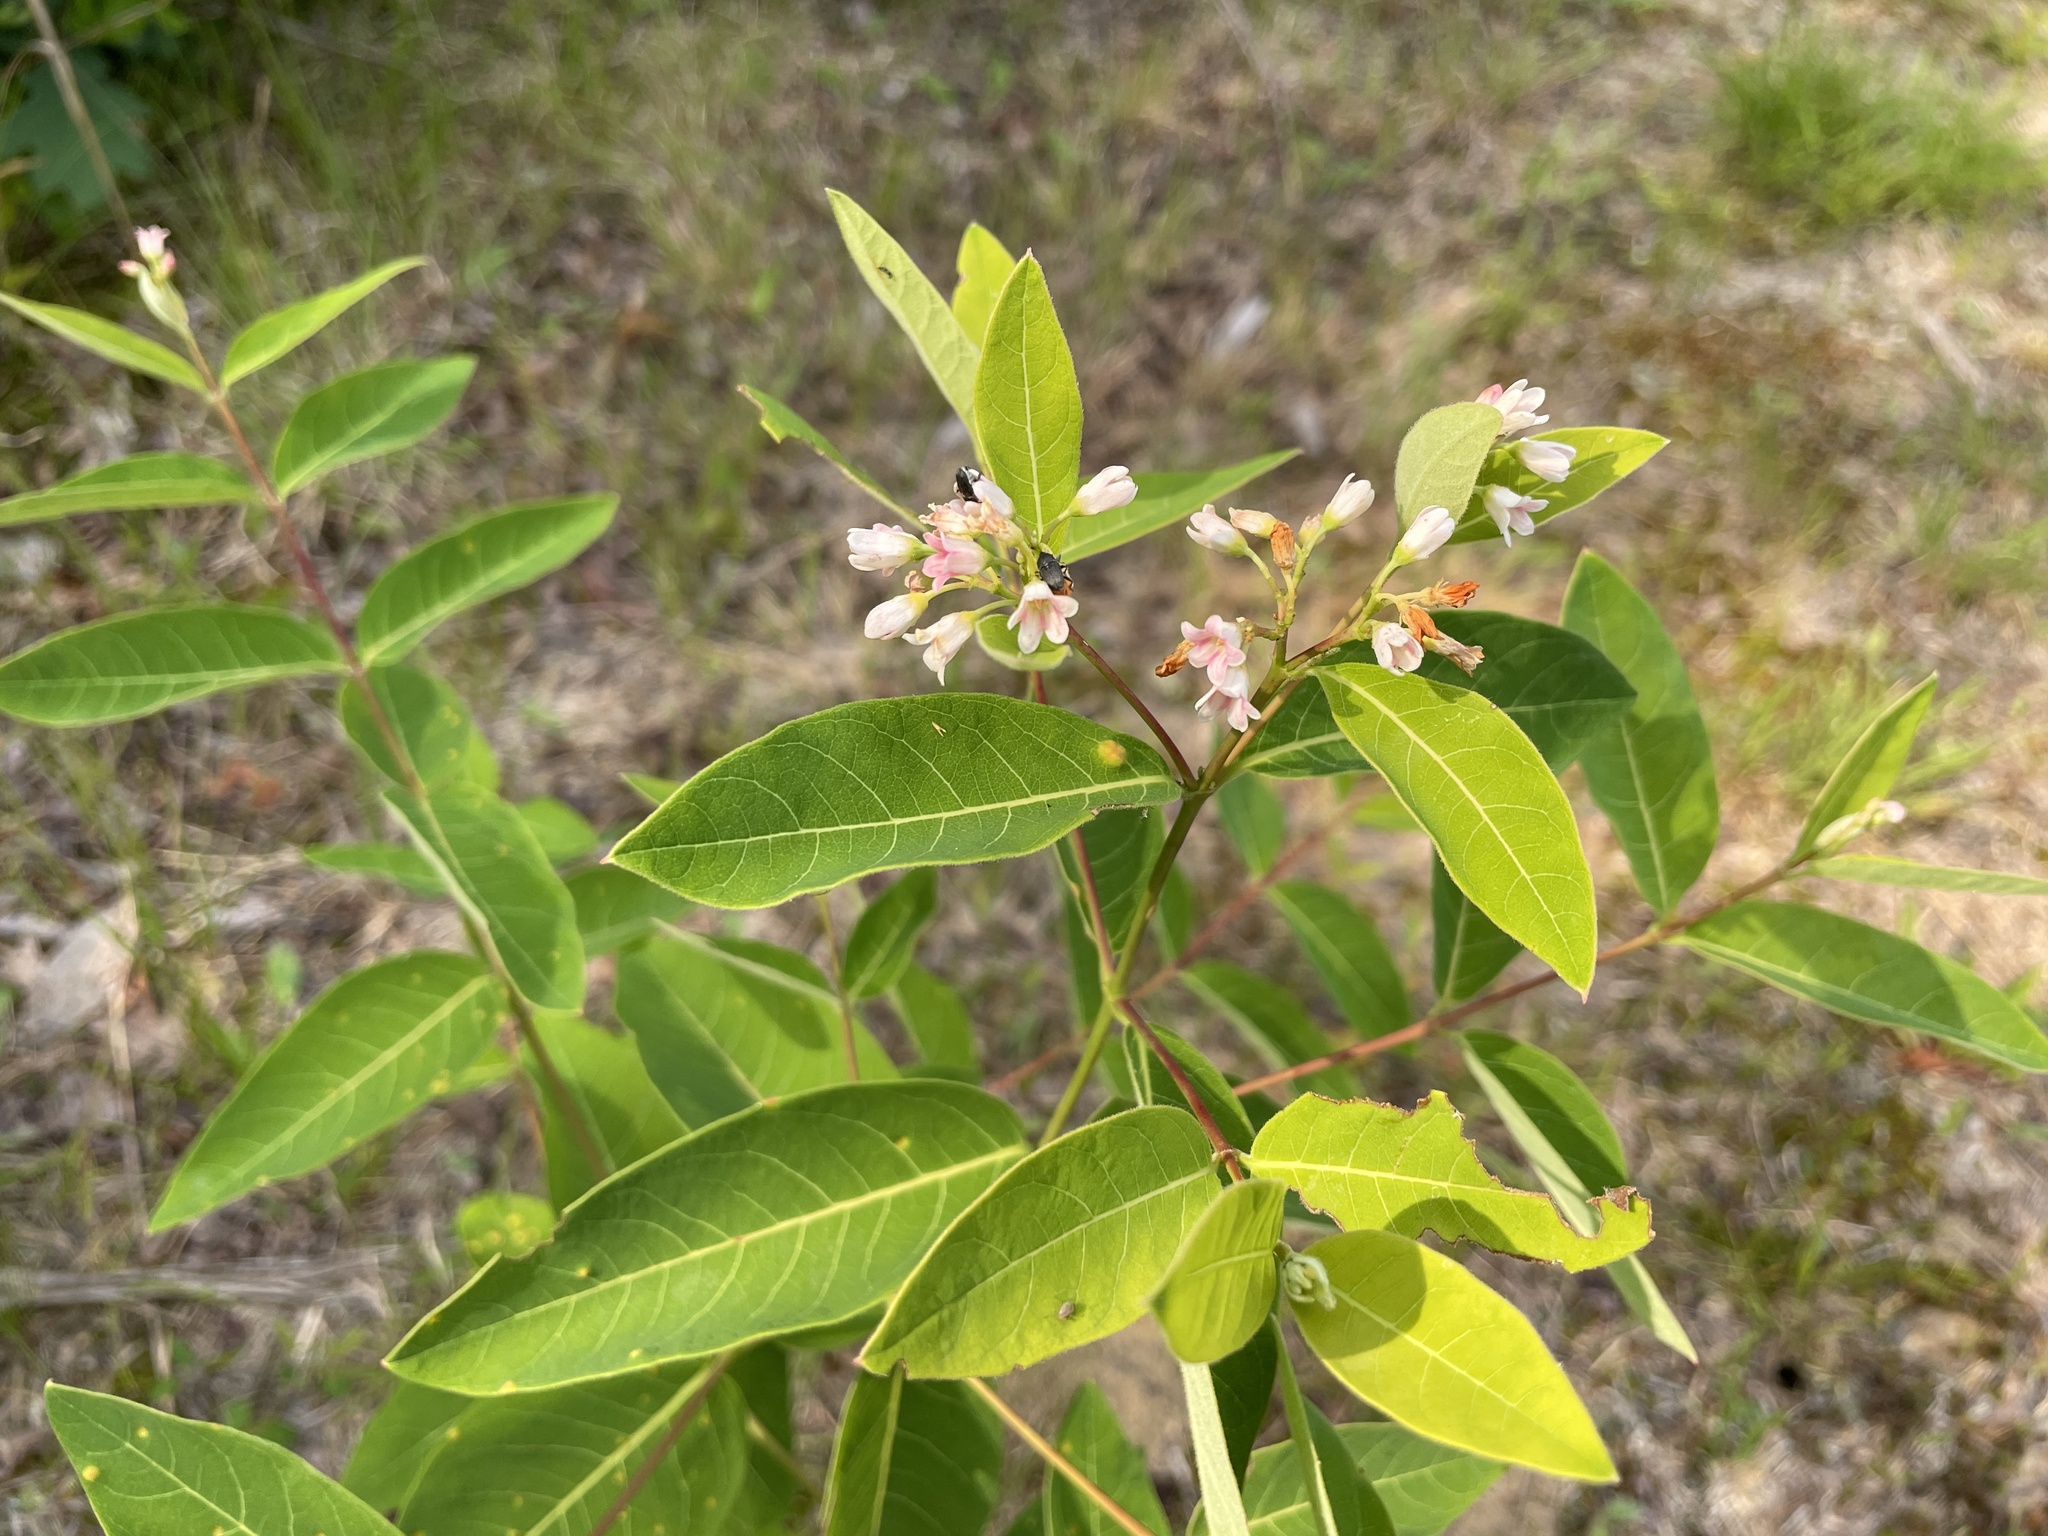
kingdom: Plantae
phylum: Tracheophyta
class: Magnoliopsida
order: Gentianales
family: Apocynaceae
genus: Apocynum
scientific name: Apocynum androsaemifolium
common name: Spreading dogbane
